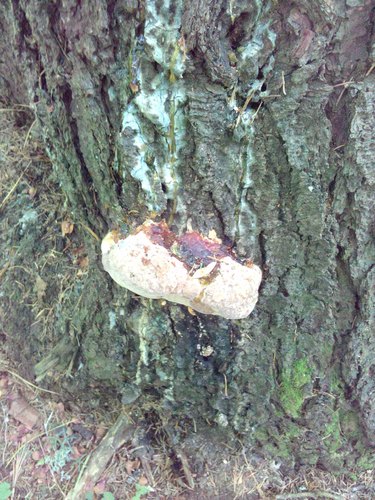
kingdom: Fungi
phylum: Basidiomycota
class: Agaricomycetes
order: Polyporales
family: Fomitopsidaceae
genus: Fomitopsis
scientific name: Fomitopsis pinicola
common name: Red-belted bracket
